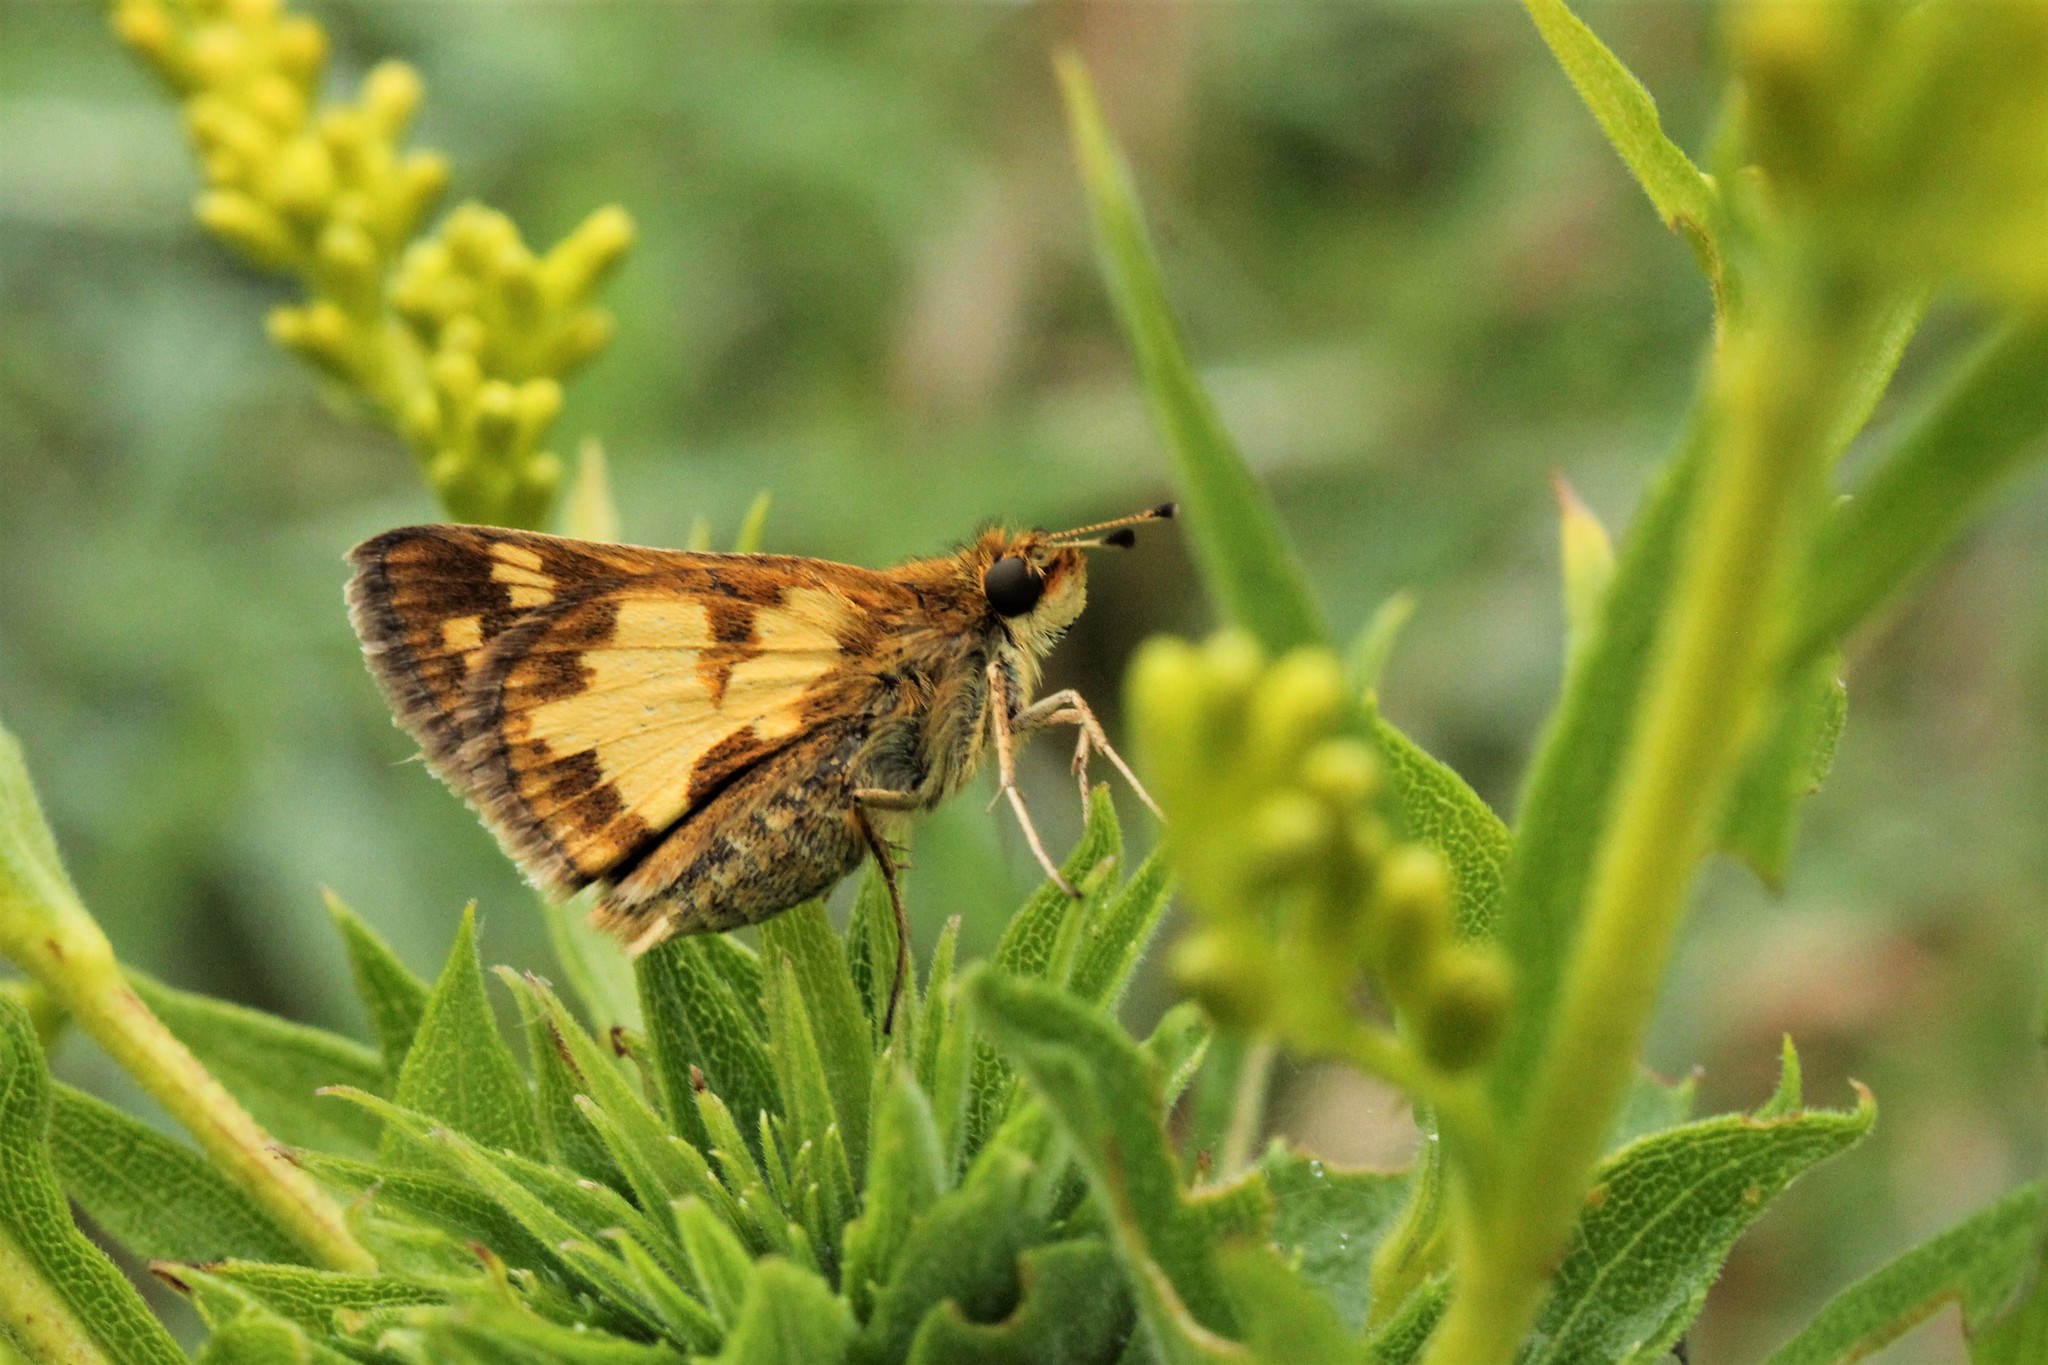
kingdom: Animalia
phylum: Arthropoda
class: Insecta
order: Lepidoptera
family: Hesperiidae
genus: Polites
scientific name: Polites coras
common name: Peck's skipper
